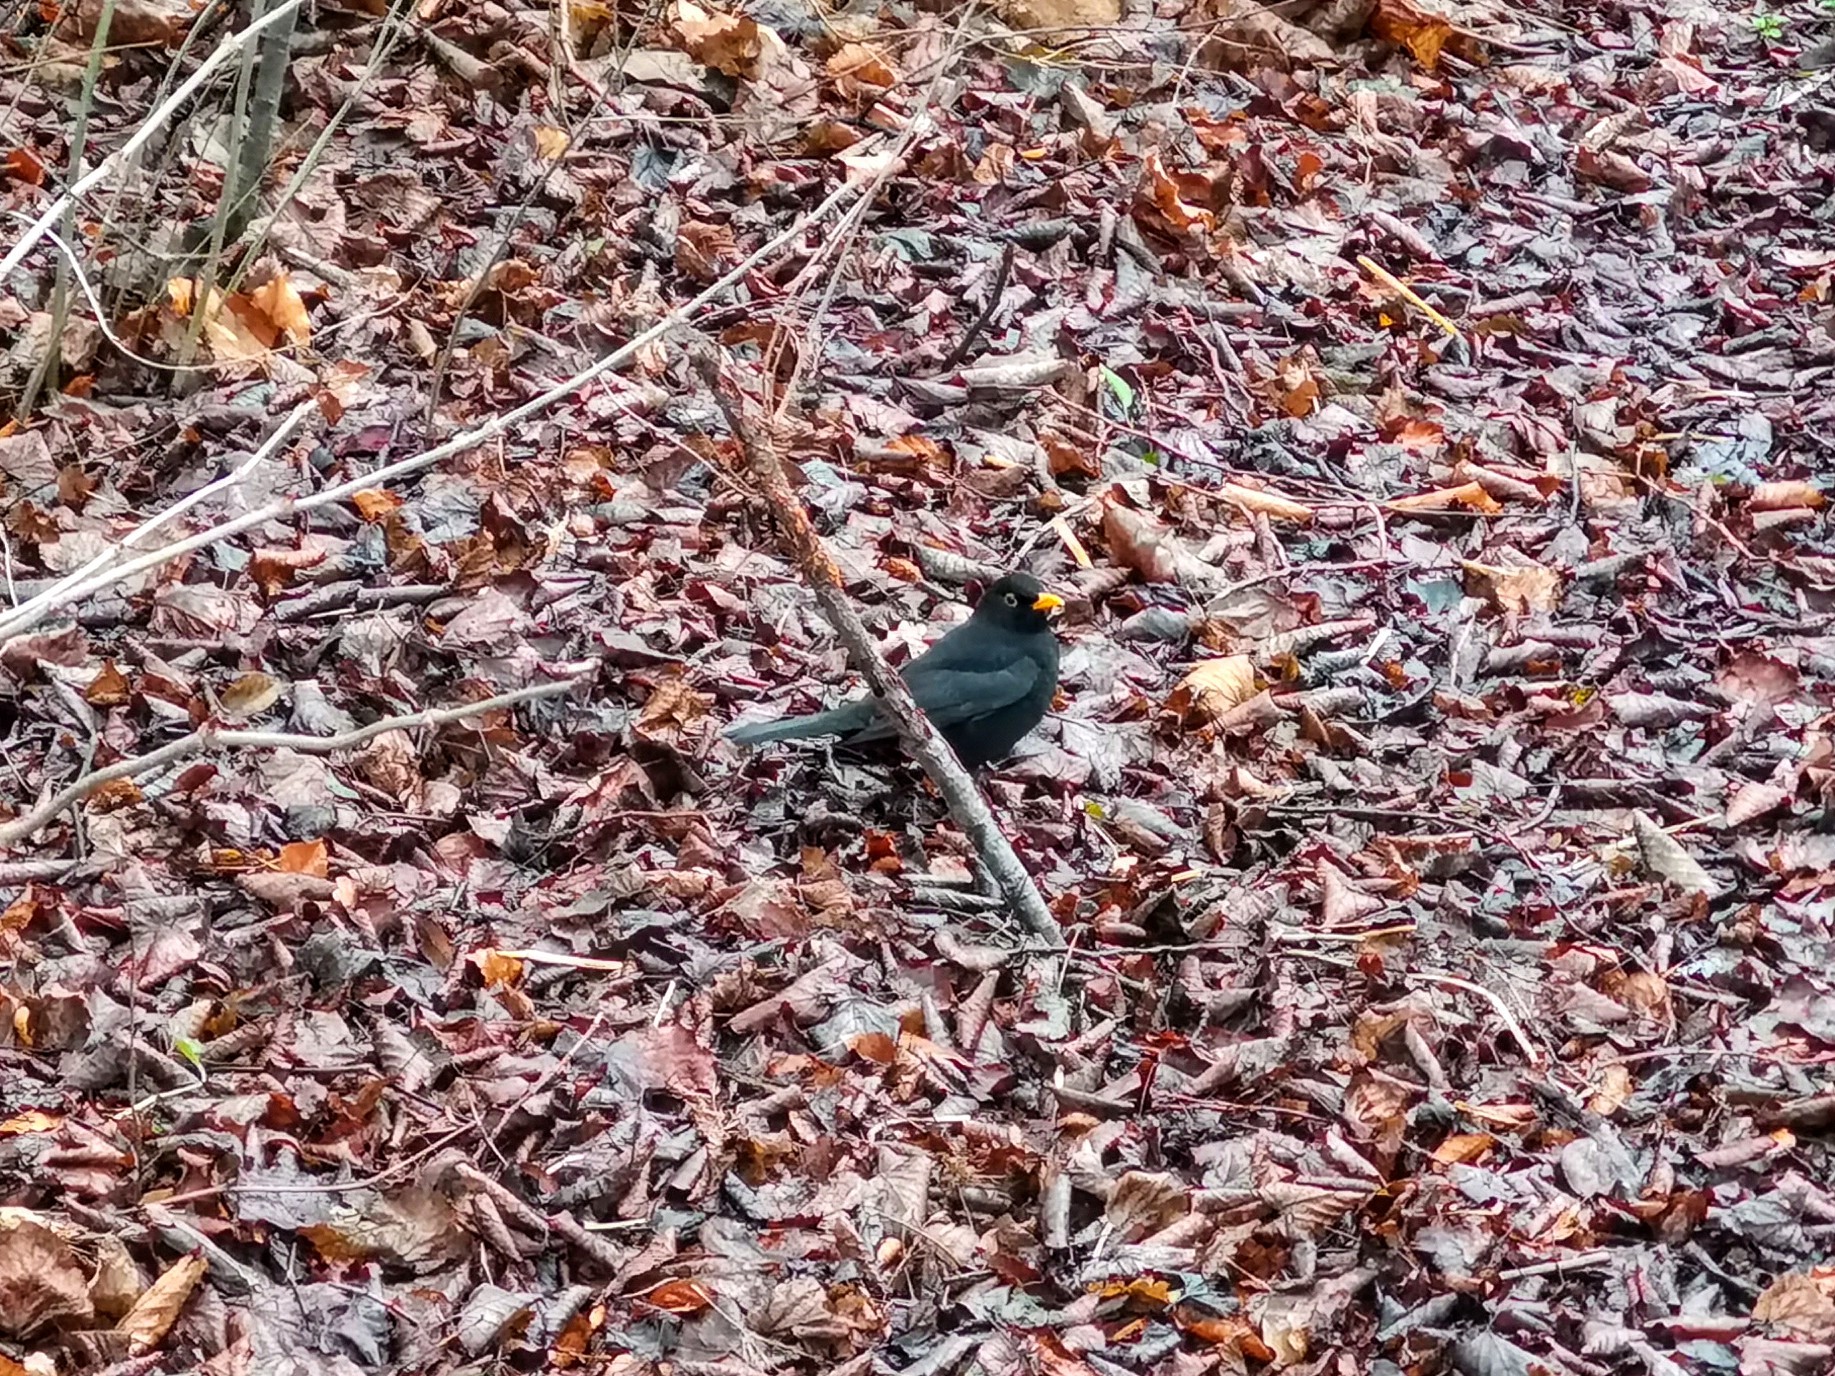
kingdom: Animalia
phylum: Chordata
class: Aves
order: Passeriformes
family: Turdidae
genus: Turdus
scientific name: Turdus merula
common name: Common blackbird
